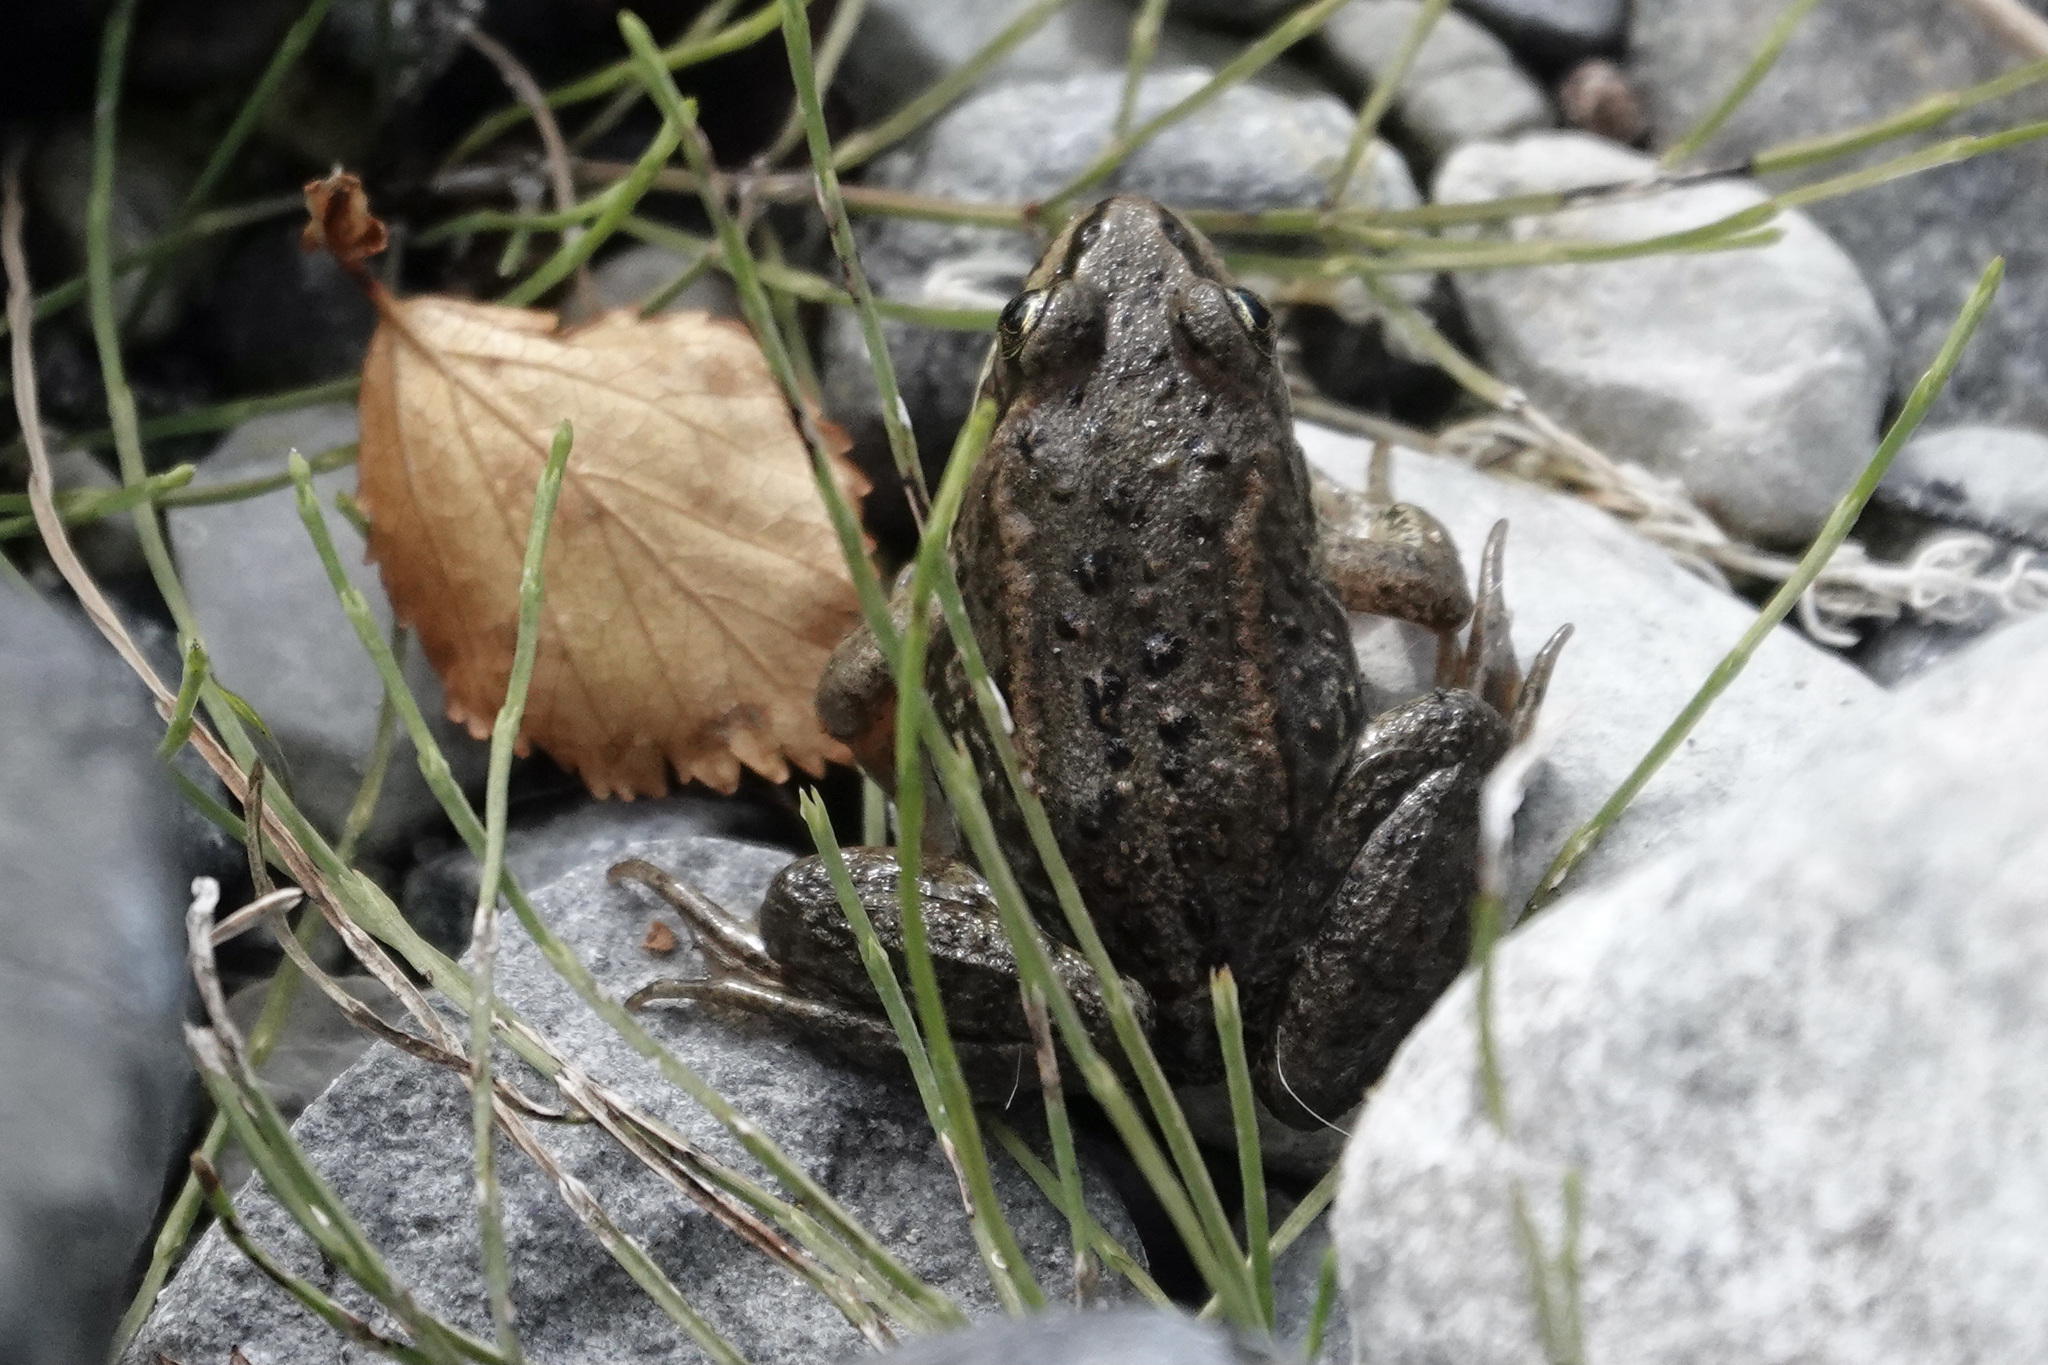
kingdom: Animalia
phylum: Chordata
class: Amphibia
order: Anura
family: Ranidae
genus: Rana
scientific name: Rana luteiventris
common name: Columbia spotted frog
